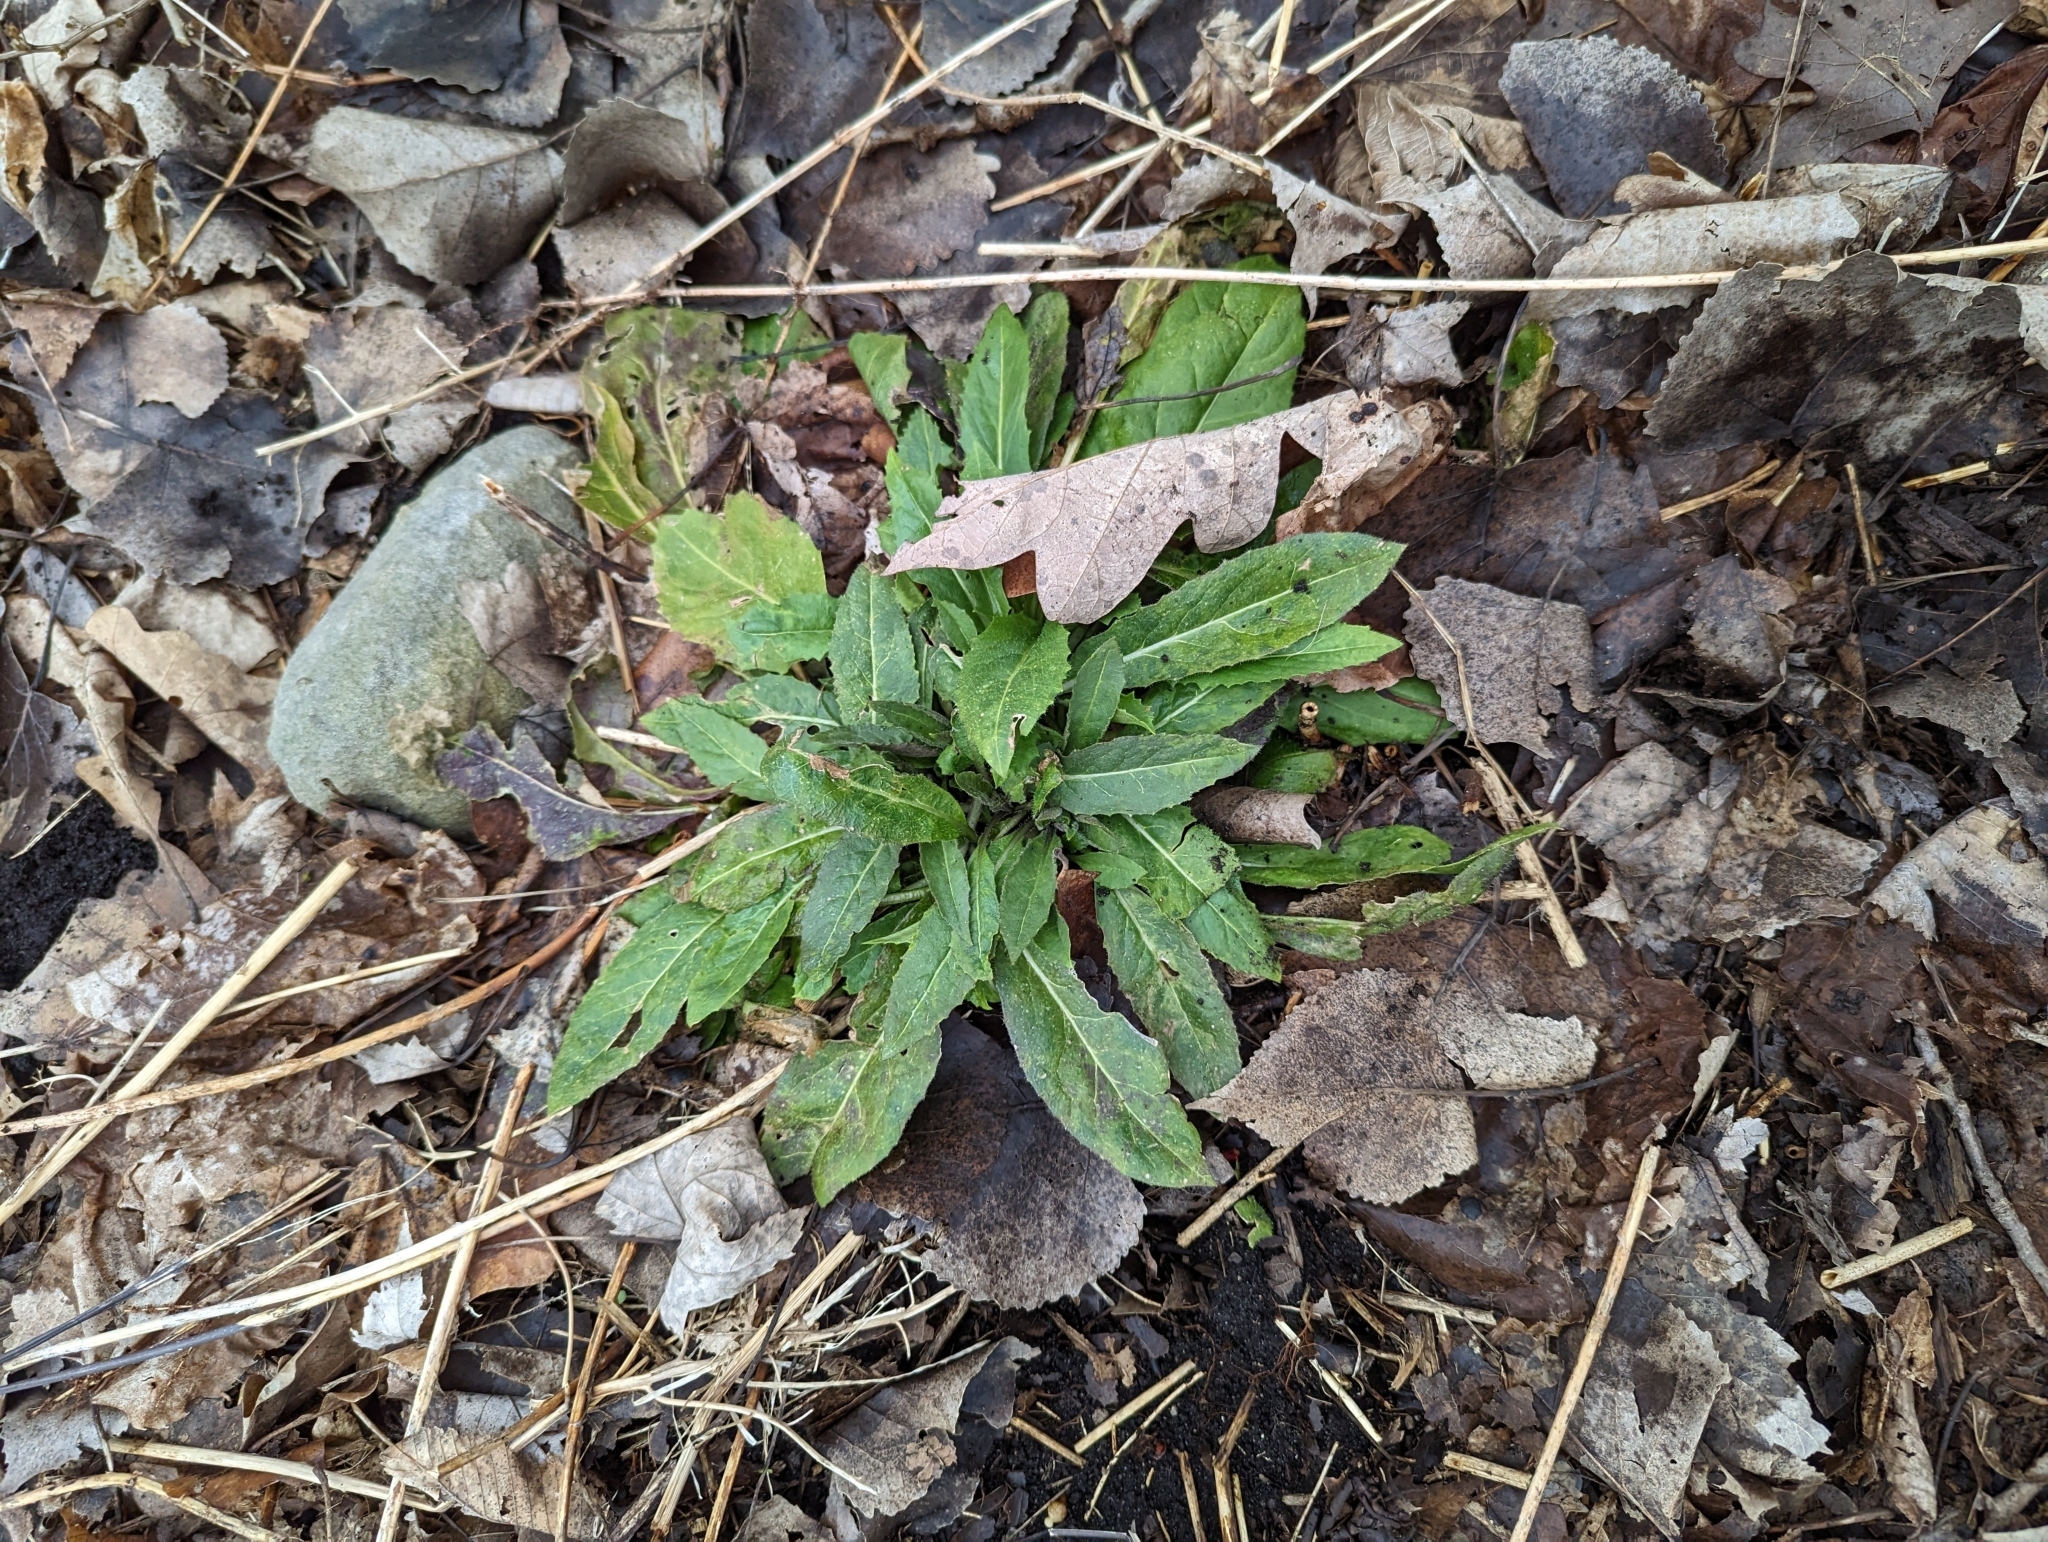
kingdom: Plantae
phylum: Tracheophyta
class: Magnoliopsida
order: Brassicales
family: Brassicaceae
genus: Hesperis
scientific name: Hesperis matronalis
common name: Dame's-violet
